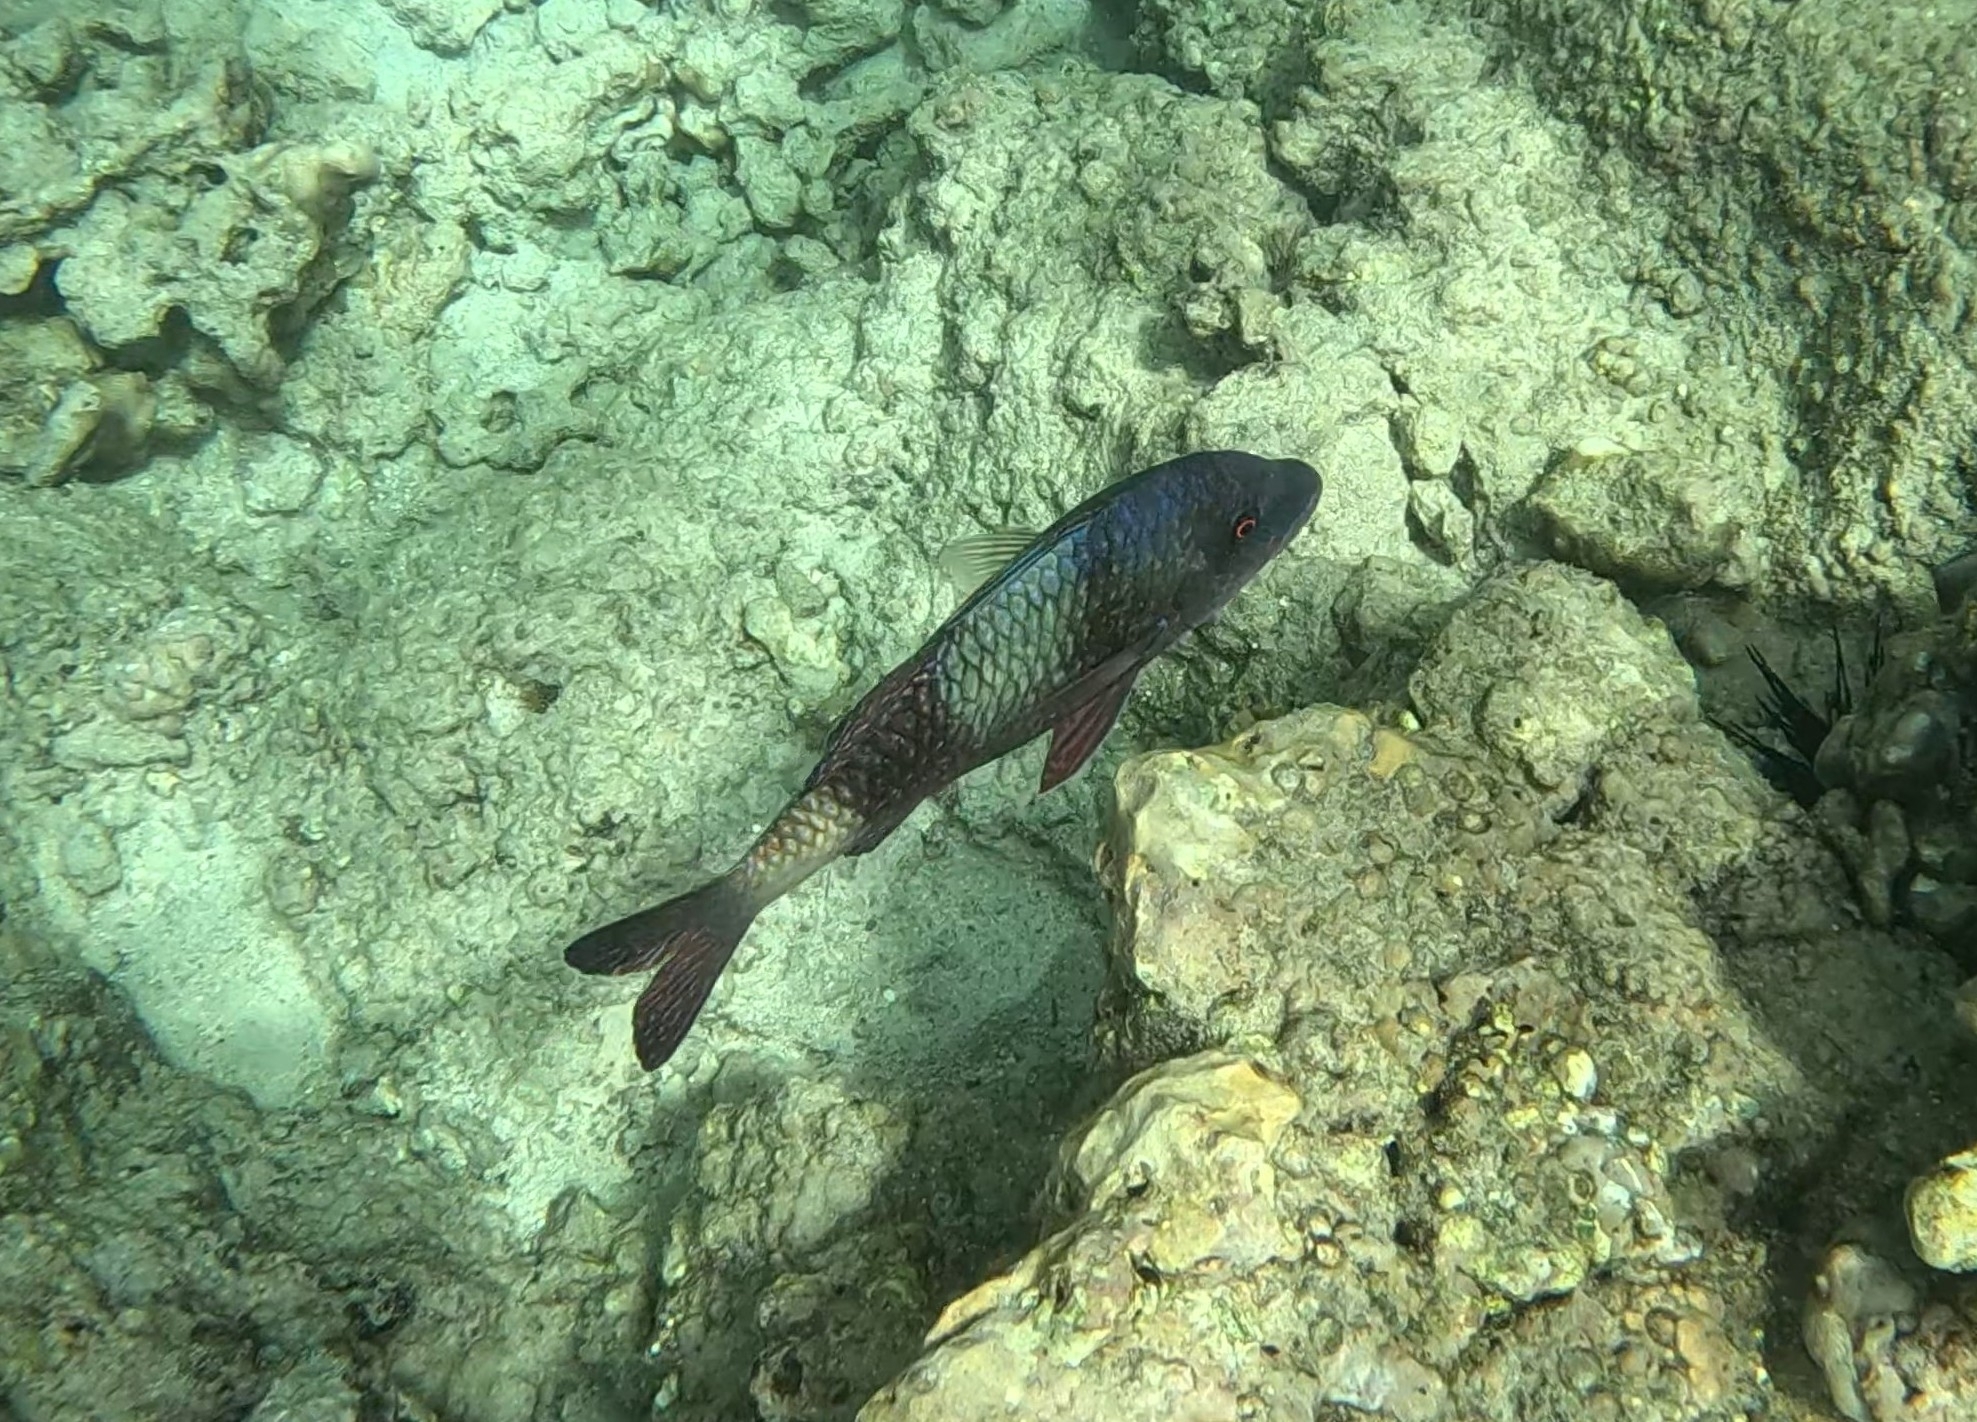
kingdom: Animalia
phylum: Chordata
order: Perciformes
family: Mullidae
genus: Parupeneus
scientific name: Parupeneus insularis
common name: Doublebar goatfish
